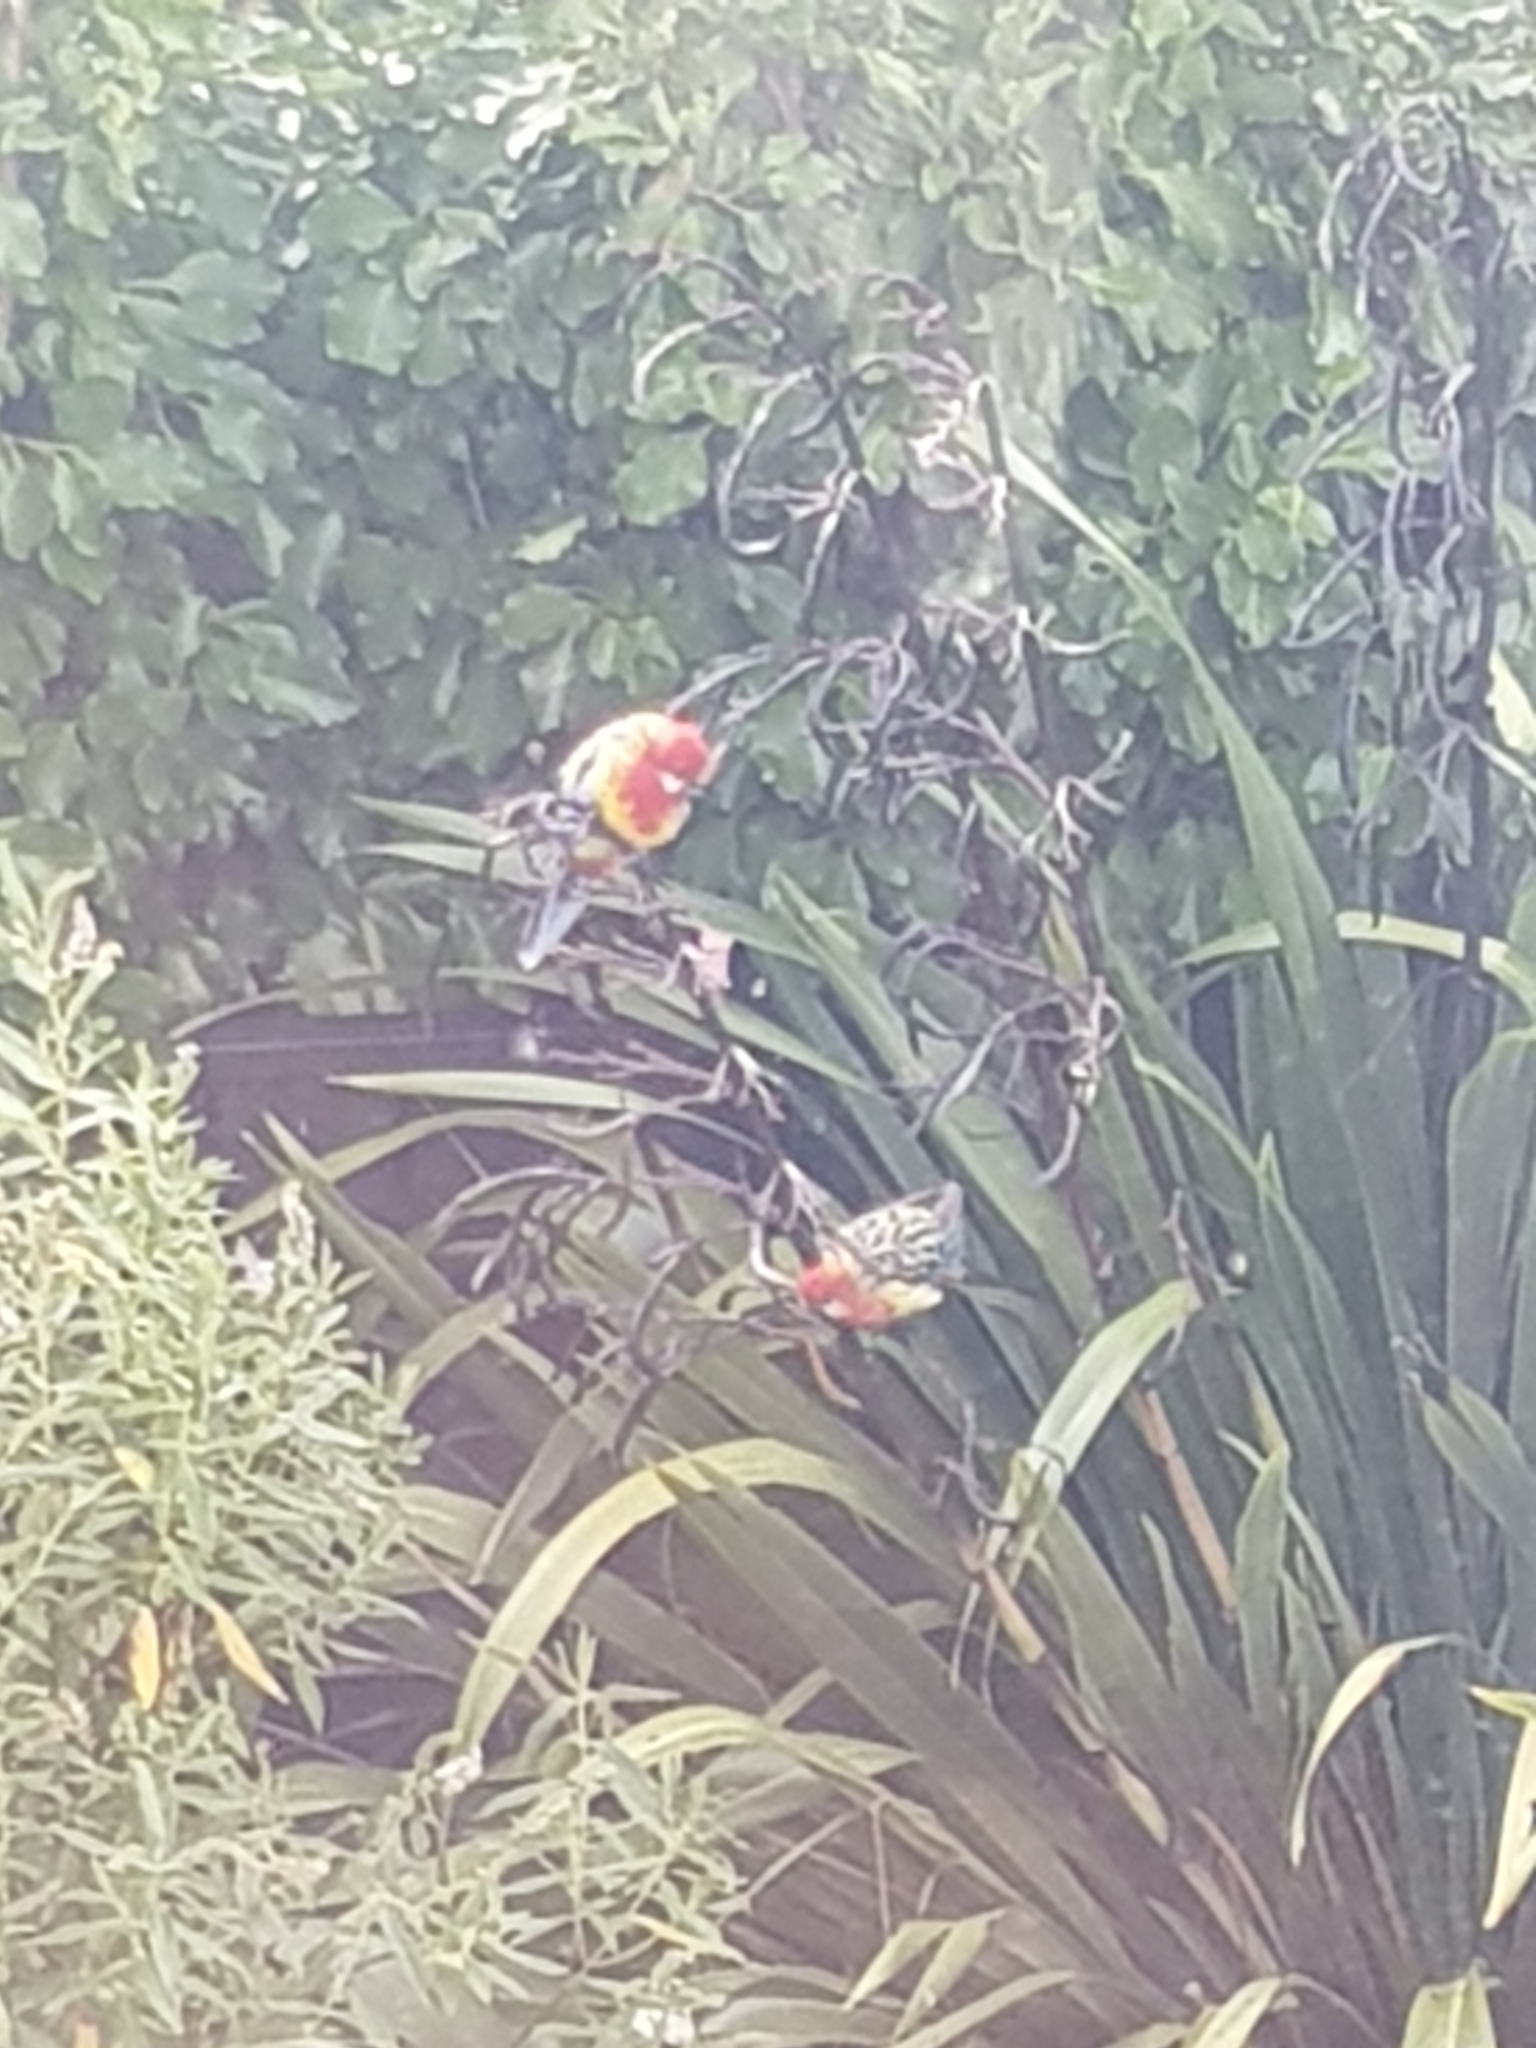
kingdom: Animalia
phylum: Chordata
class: Aves
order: Psittaciformes
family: Psittacidae
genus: Platycercus
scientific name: Platycercus eximius
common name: Eastern rosella
